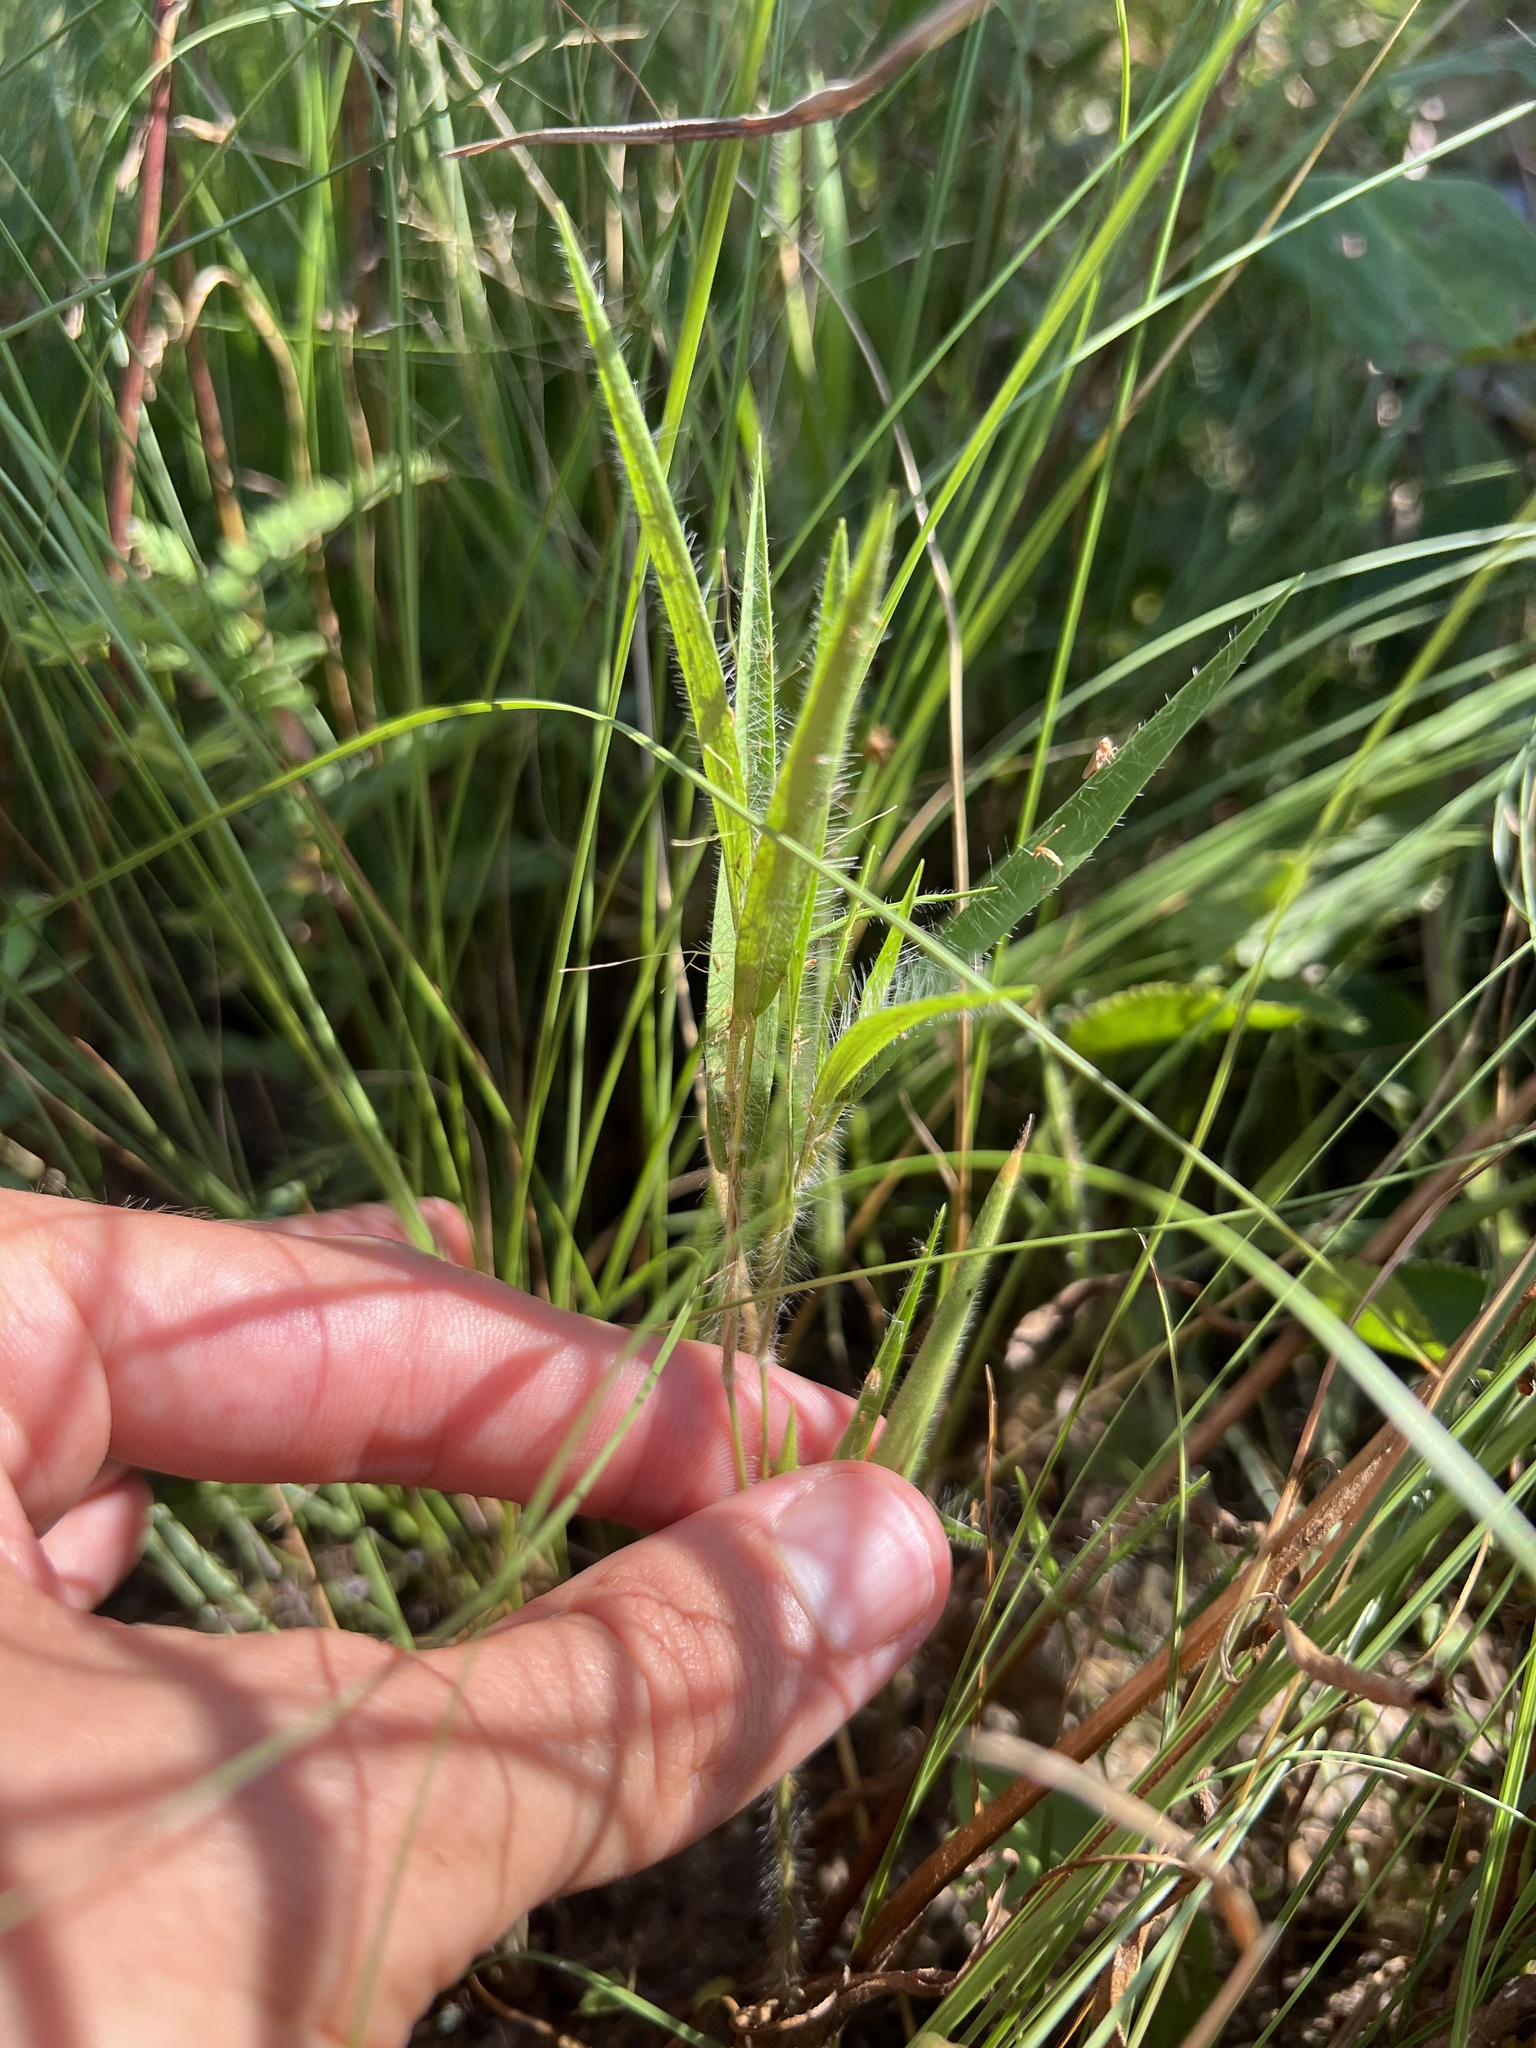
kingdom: Plantae
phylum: Tracheophyta
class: Liliopsida
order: Poales
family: Poaceae
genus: Dichanthelium
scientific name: Dichanthelium praecocius
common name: Early-branching panicgrass
